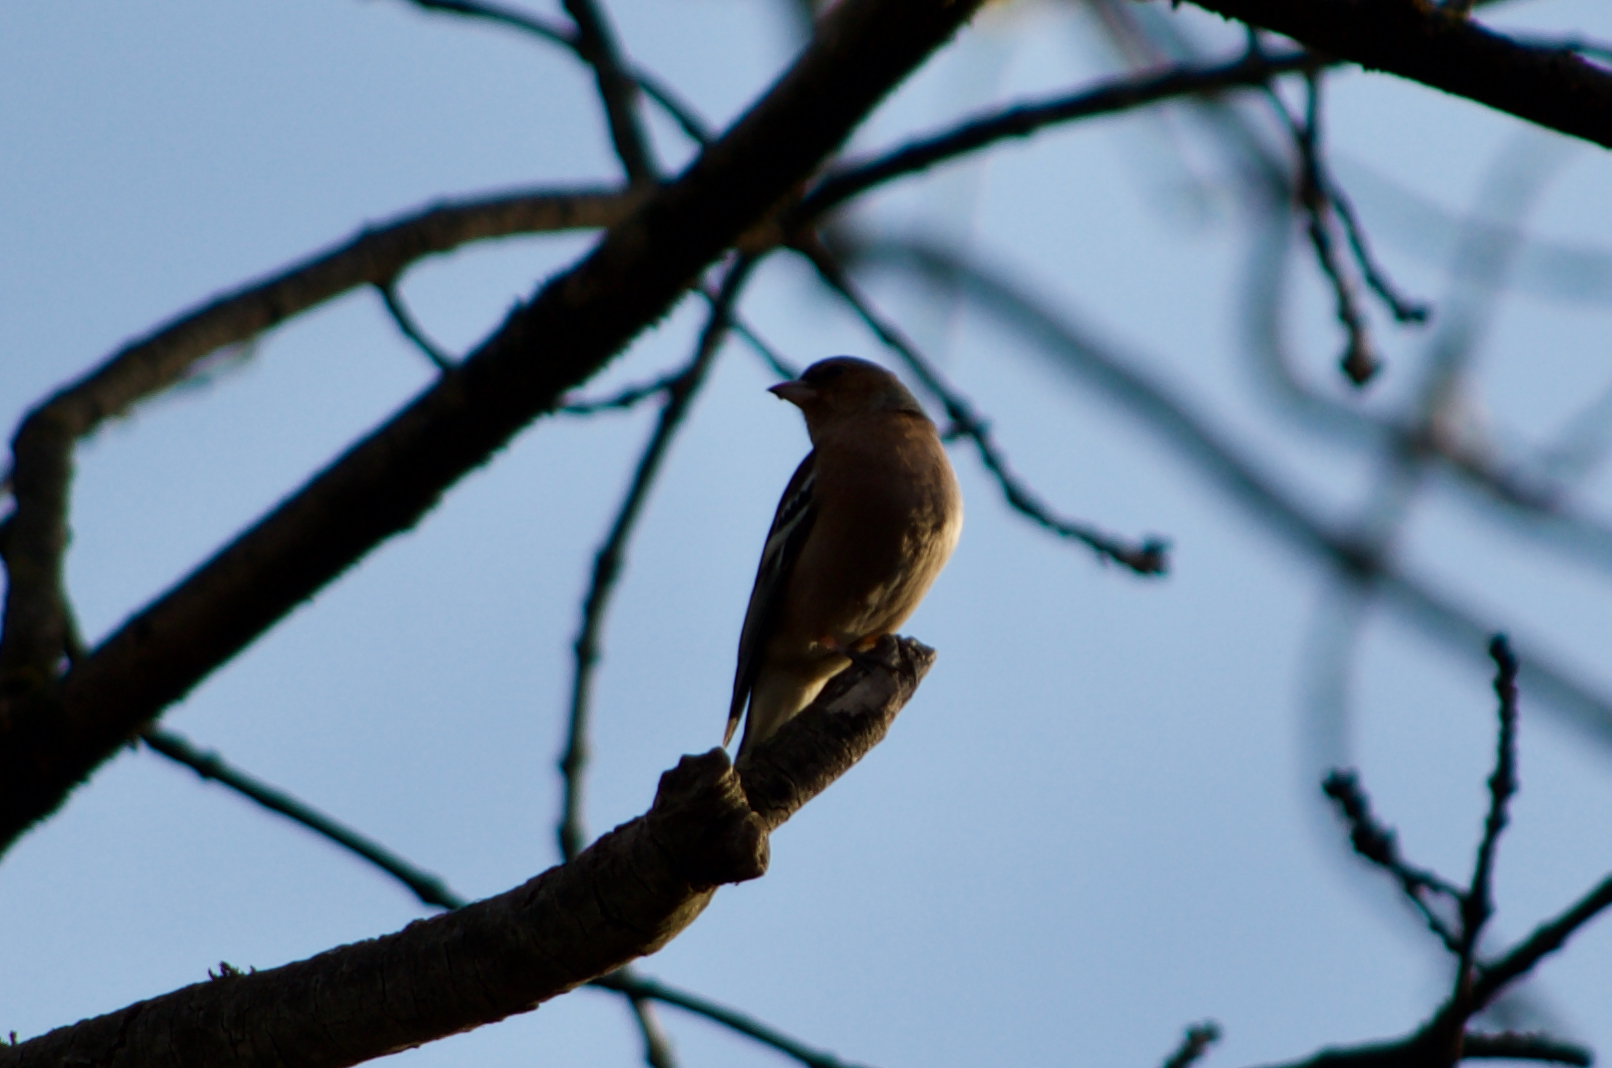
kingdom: Animalia
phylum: Chordata
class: Aves
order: Passeriformes
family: Fringillidae
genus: Fringilla
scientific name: Fringilla coelebs
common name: Common chaffinch
